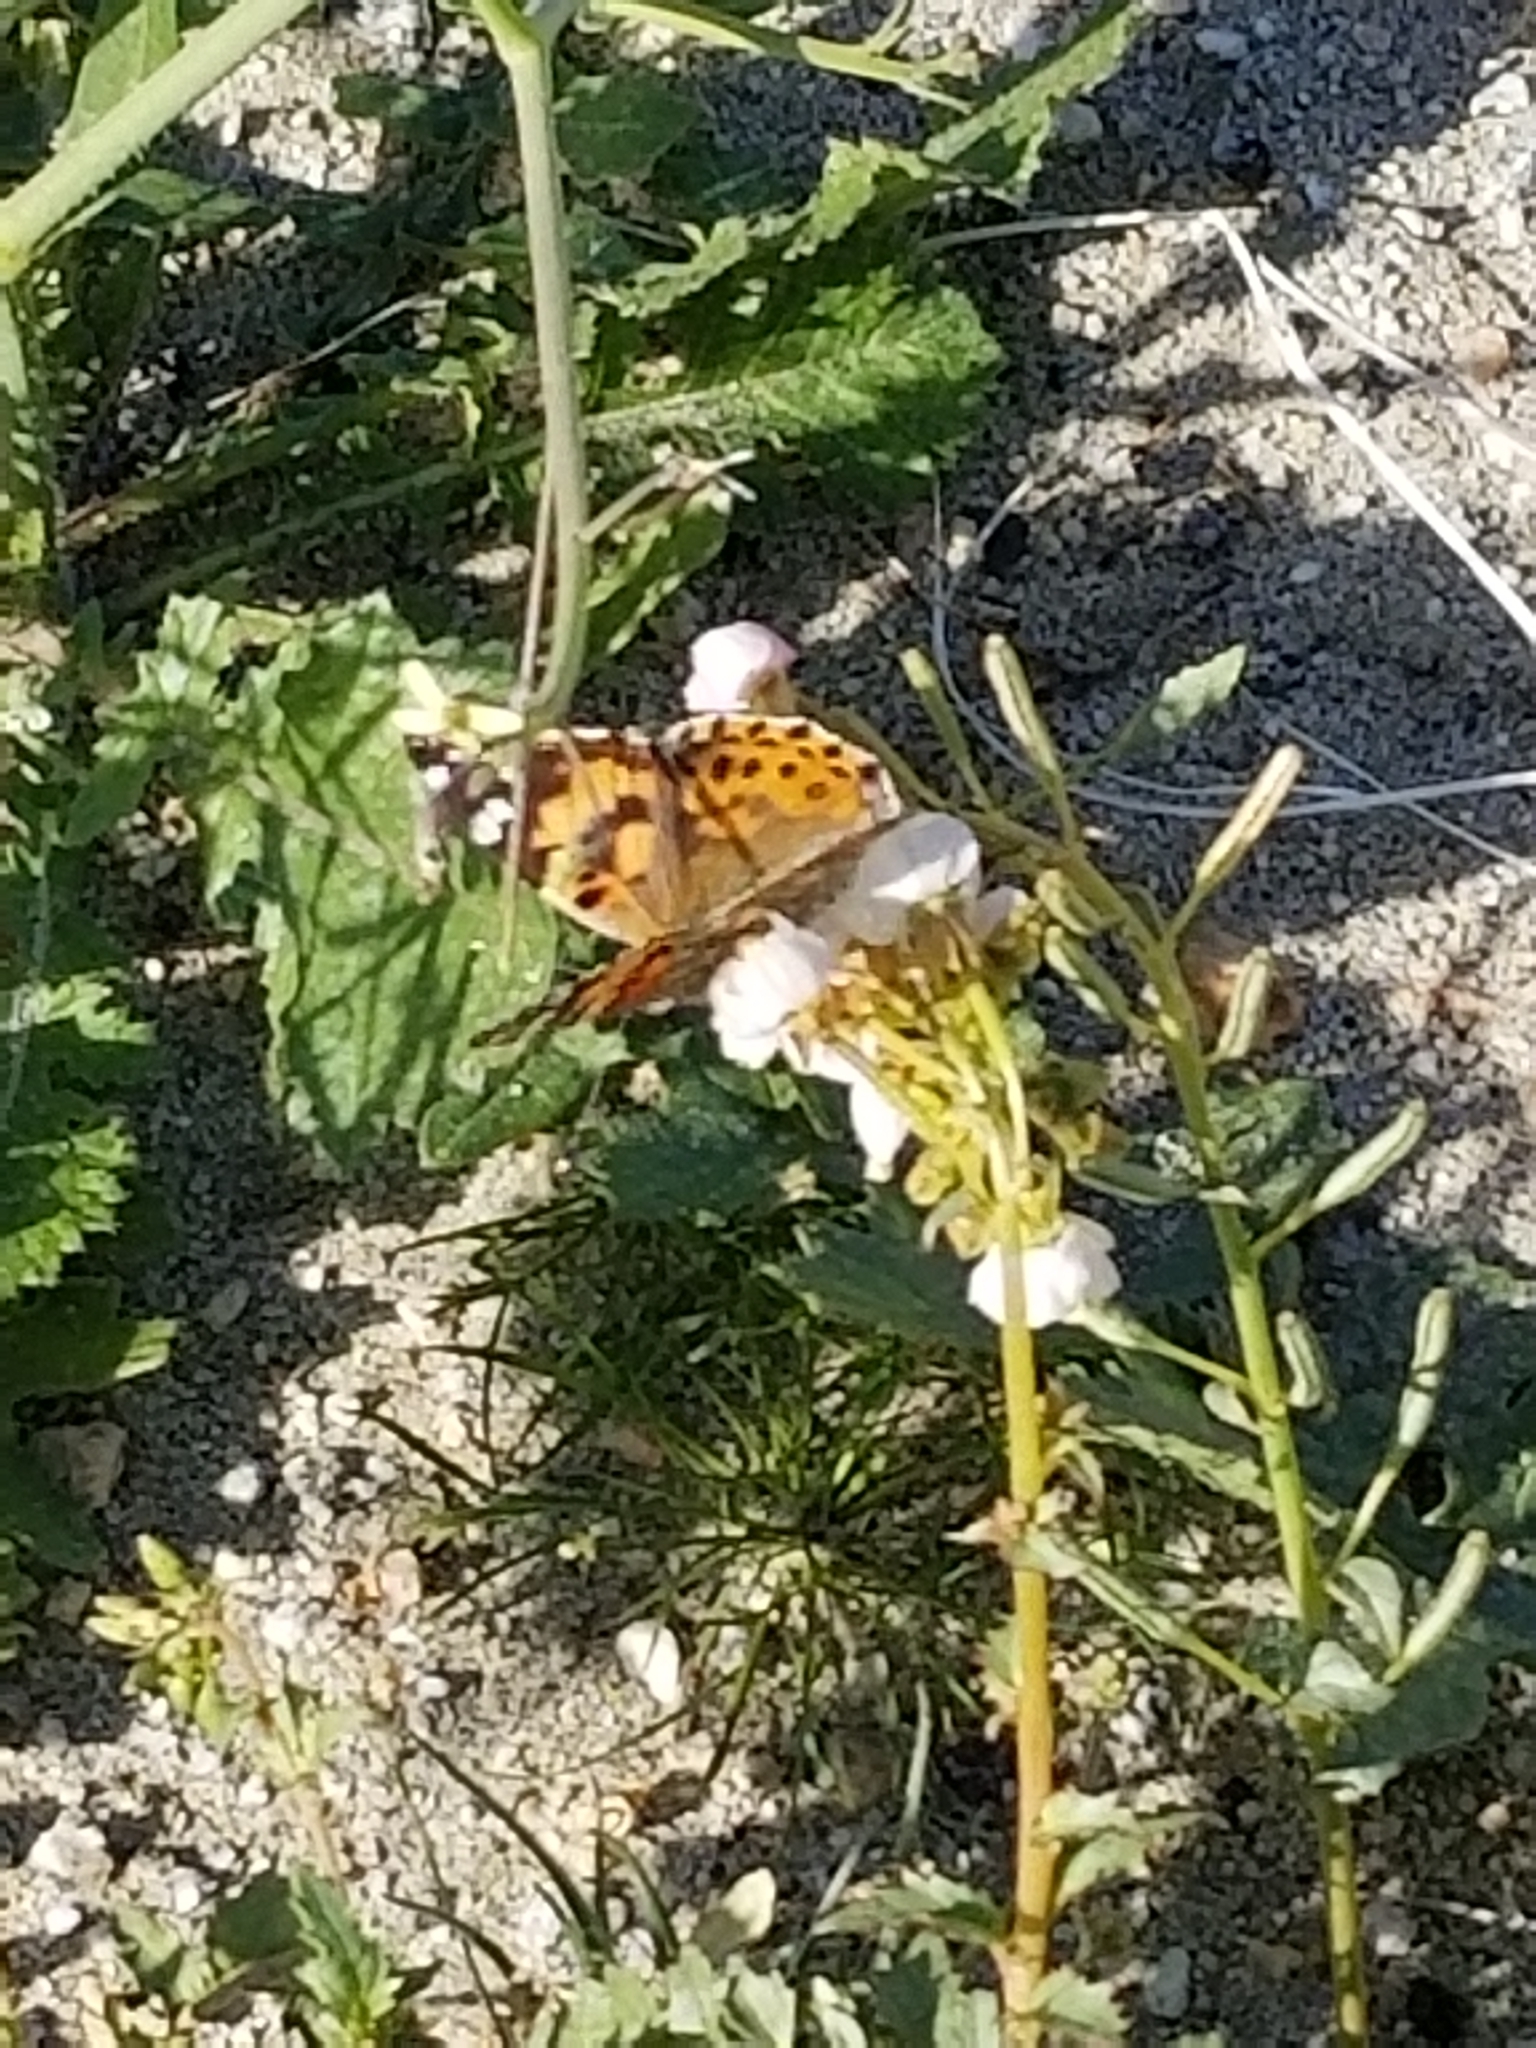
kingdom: Animalia
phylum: Arthropoda
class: Insecta
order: Lepidoptera
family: Nymphalidae
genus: Vanessa
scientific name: Vanessa cardui
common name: Painted lady
